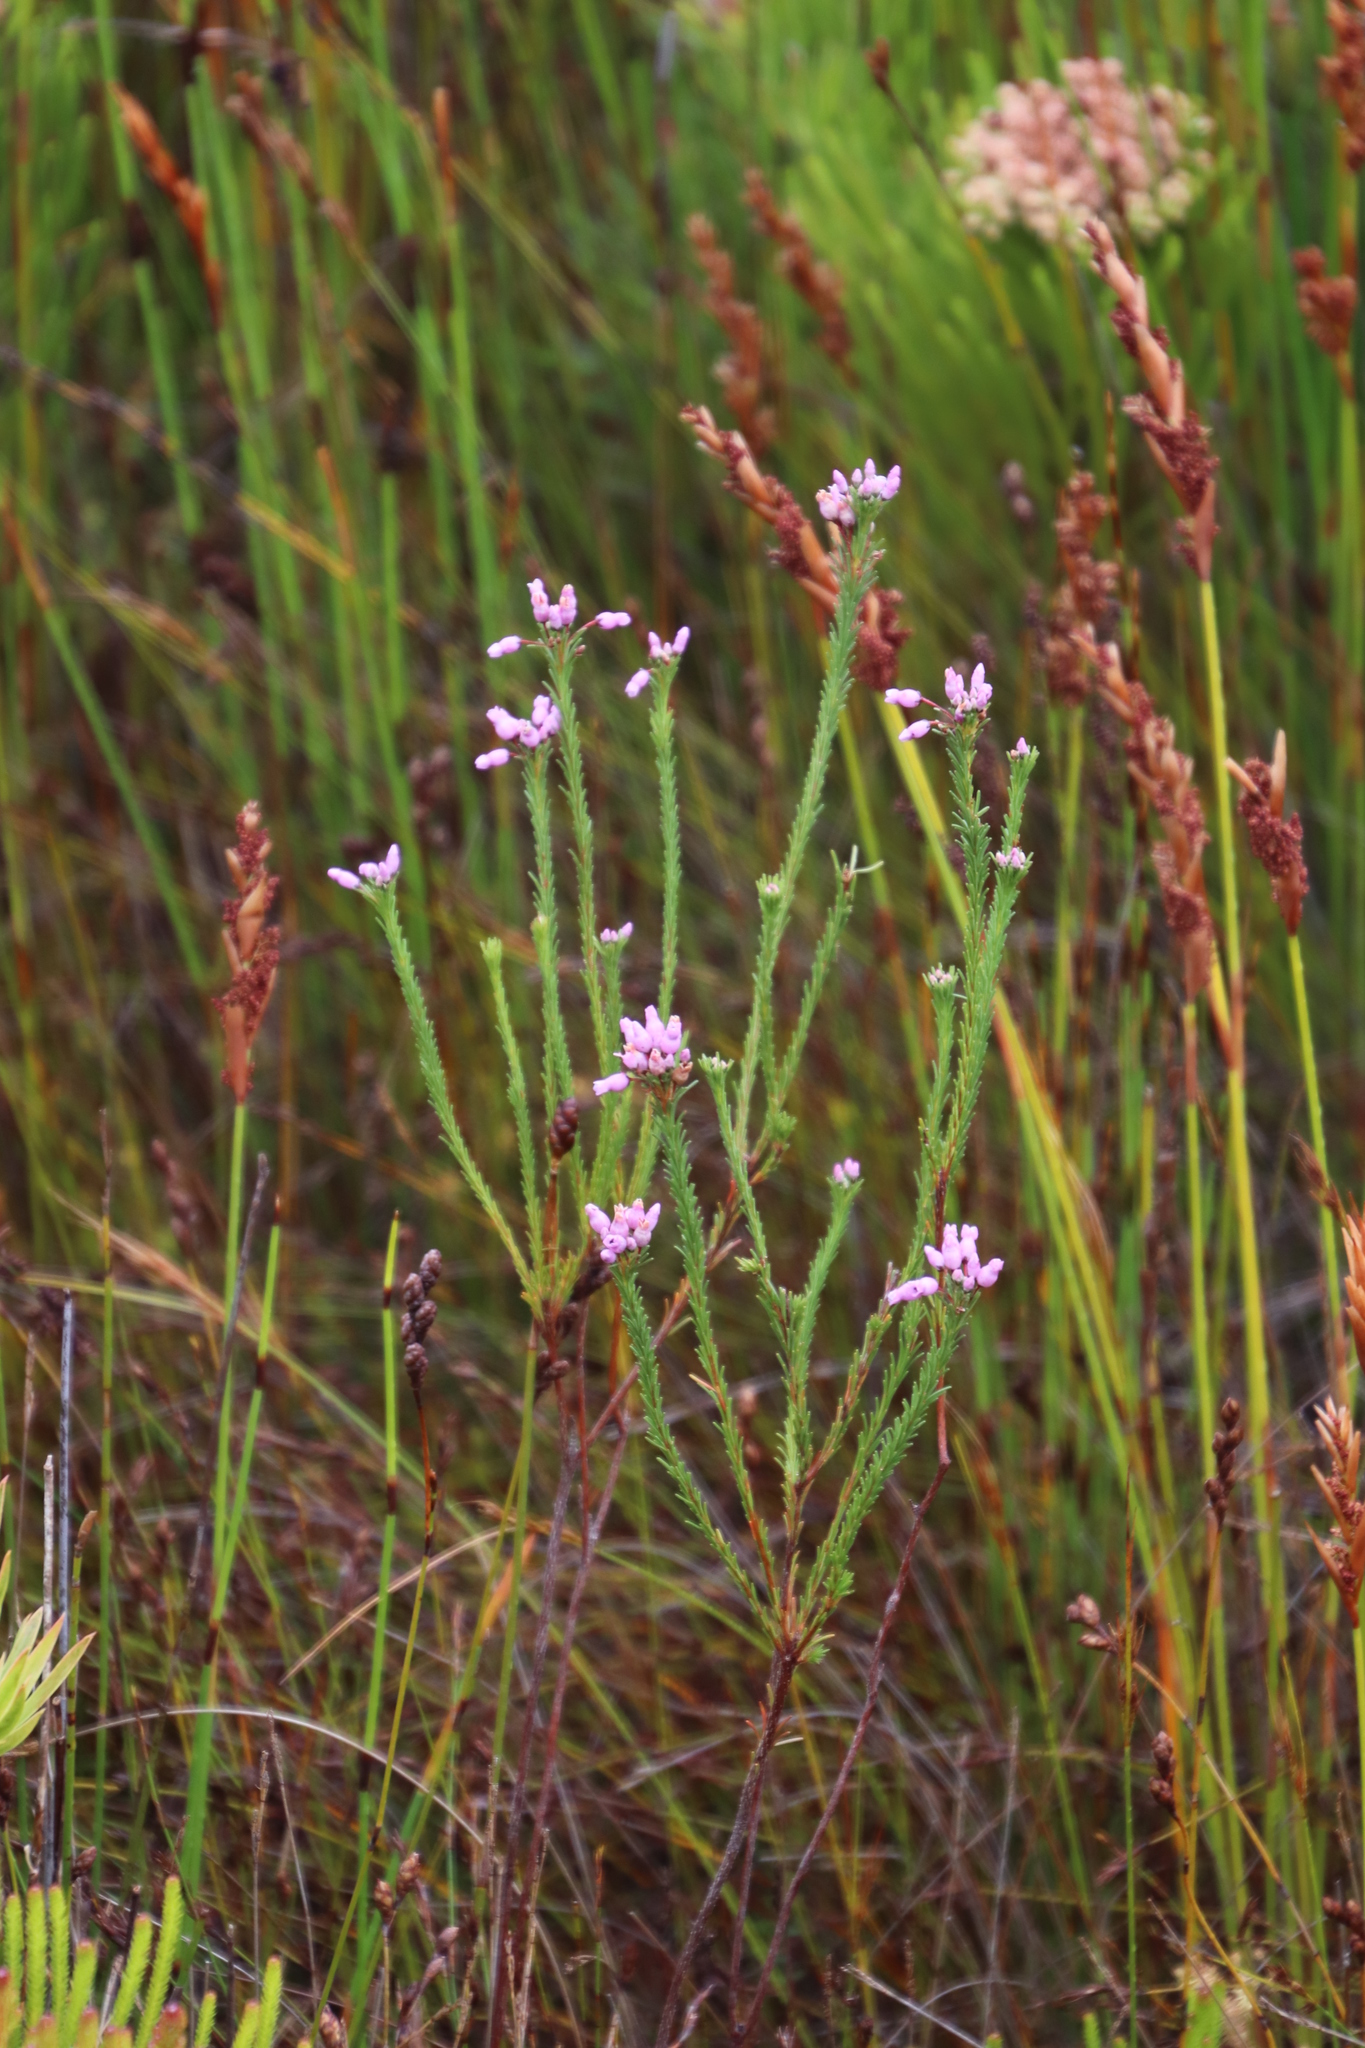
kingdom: Plantae
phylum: Tracheophyta
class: Magnoliopsida
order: Ericales
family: Ericaceae
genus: Erica
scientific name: Erica obliqua
